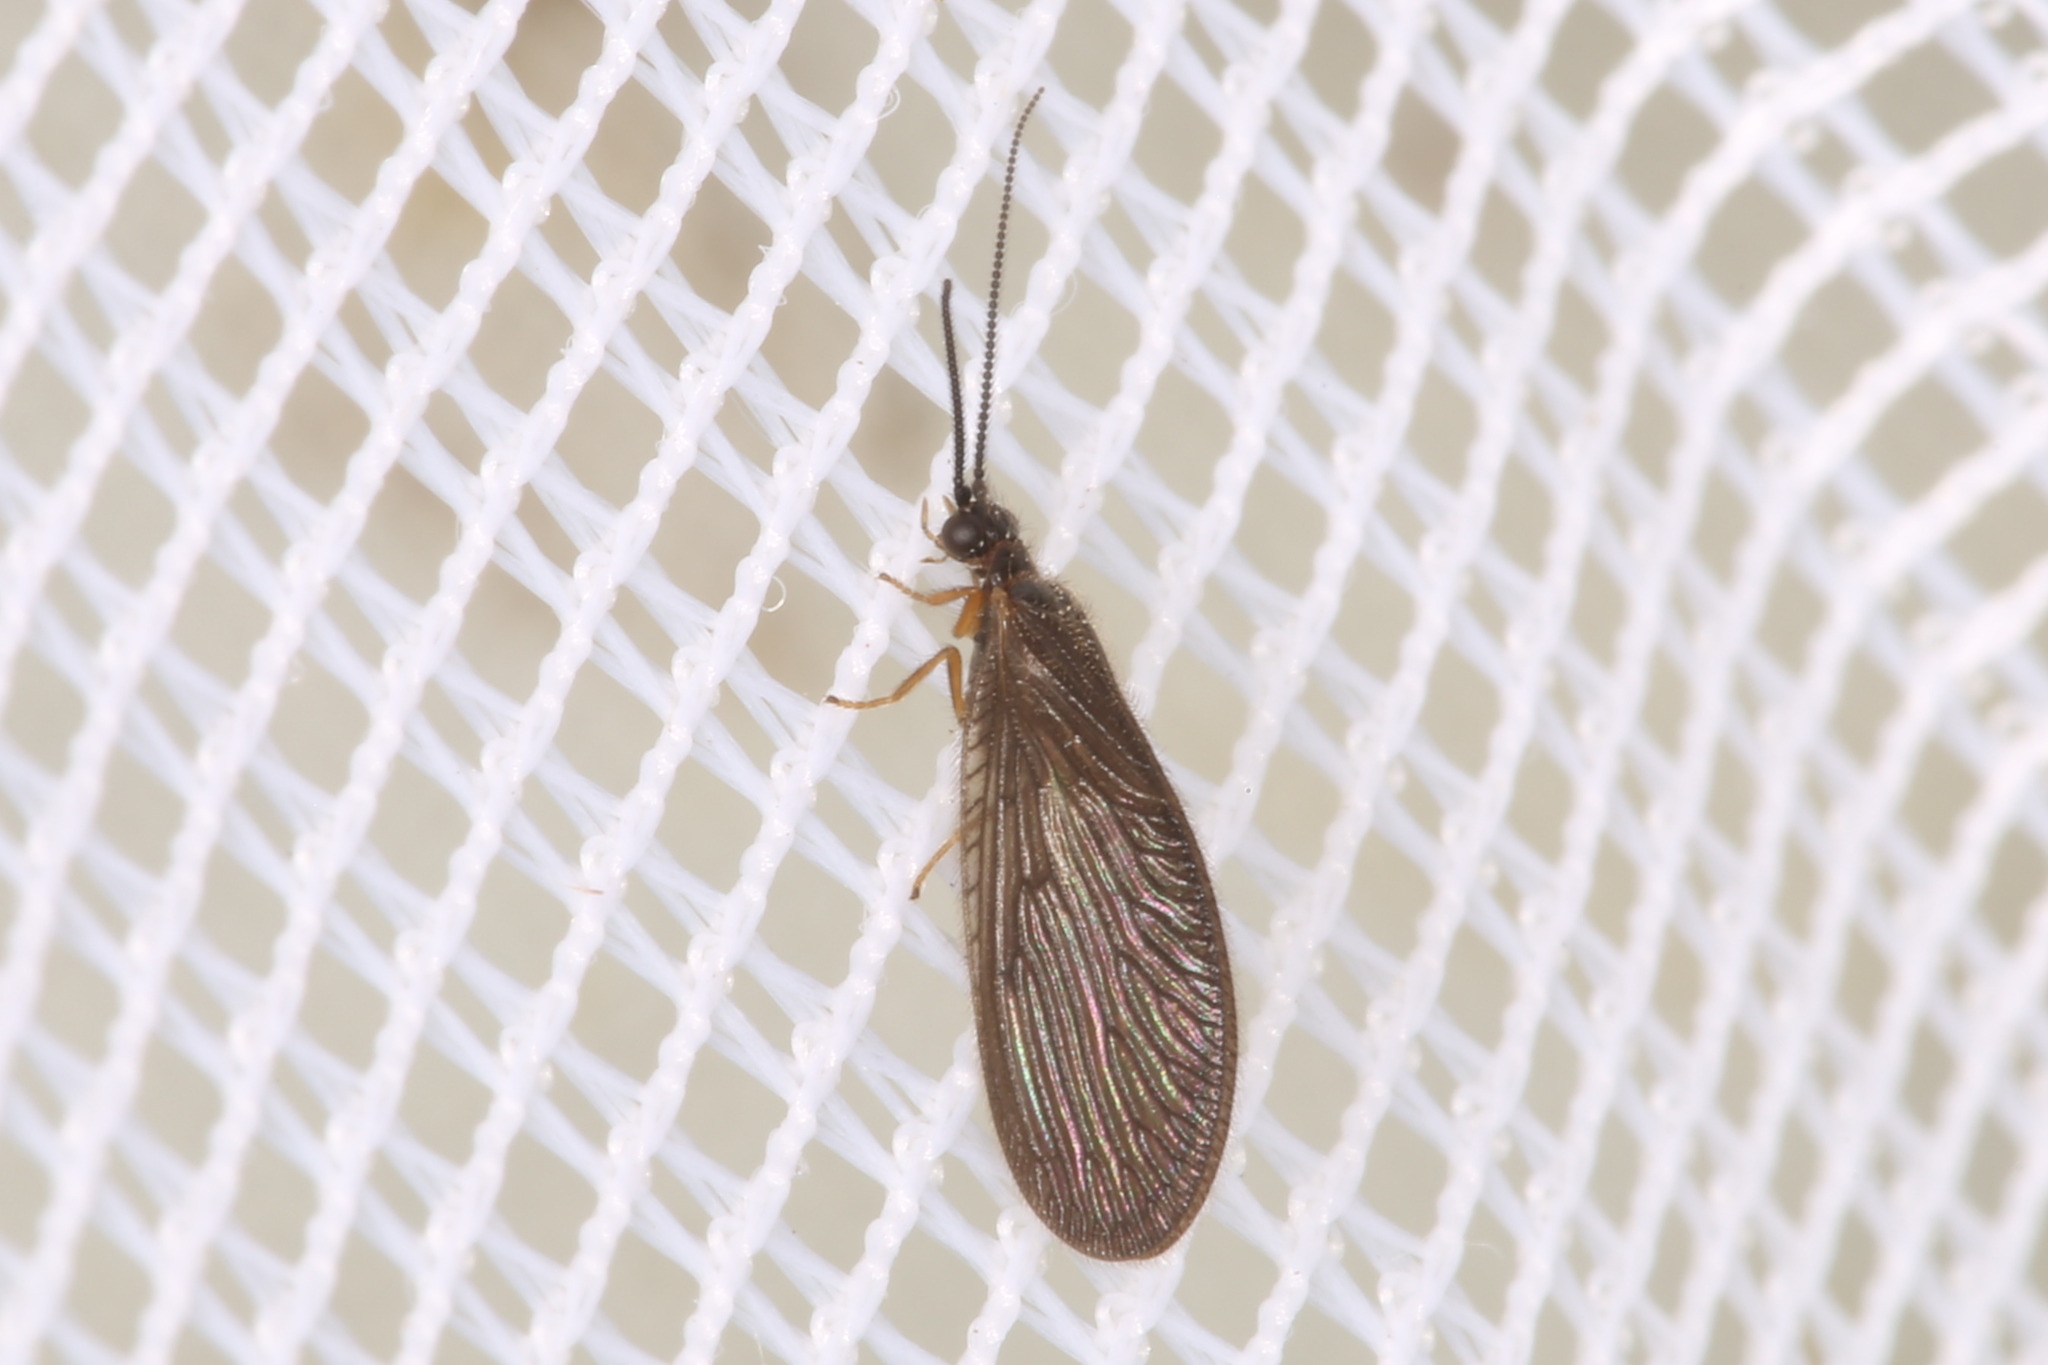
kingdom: Animalia
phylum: Arthropoda
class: Insecta
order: Neuroptera
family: Sisyridae
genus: Sisyra
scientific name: Sisyra nigra
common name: Black spongillafly
